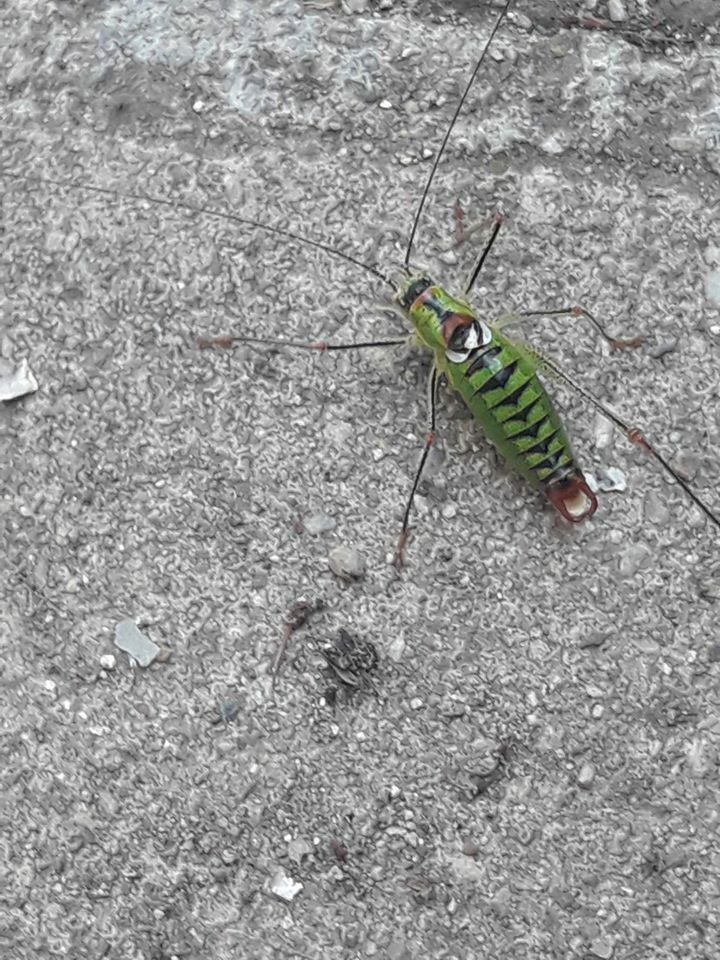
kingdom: Animalia
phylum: Arthropoda
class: Insecta
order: Orthoptera
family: Tettigoniidae
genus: Poecilimon
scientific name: Poecilimon thoracicus
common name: Bellied bright bush-cricket
